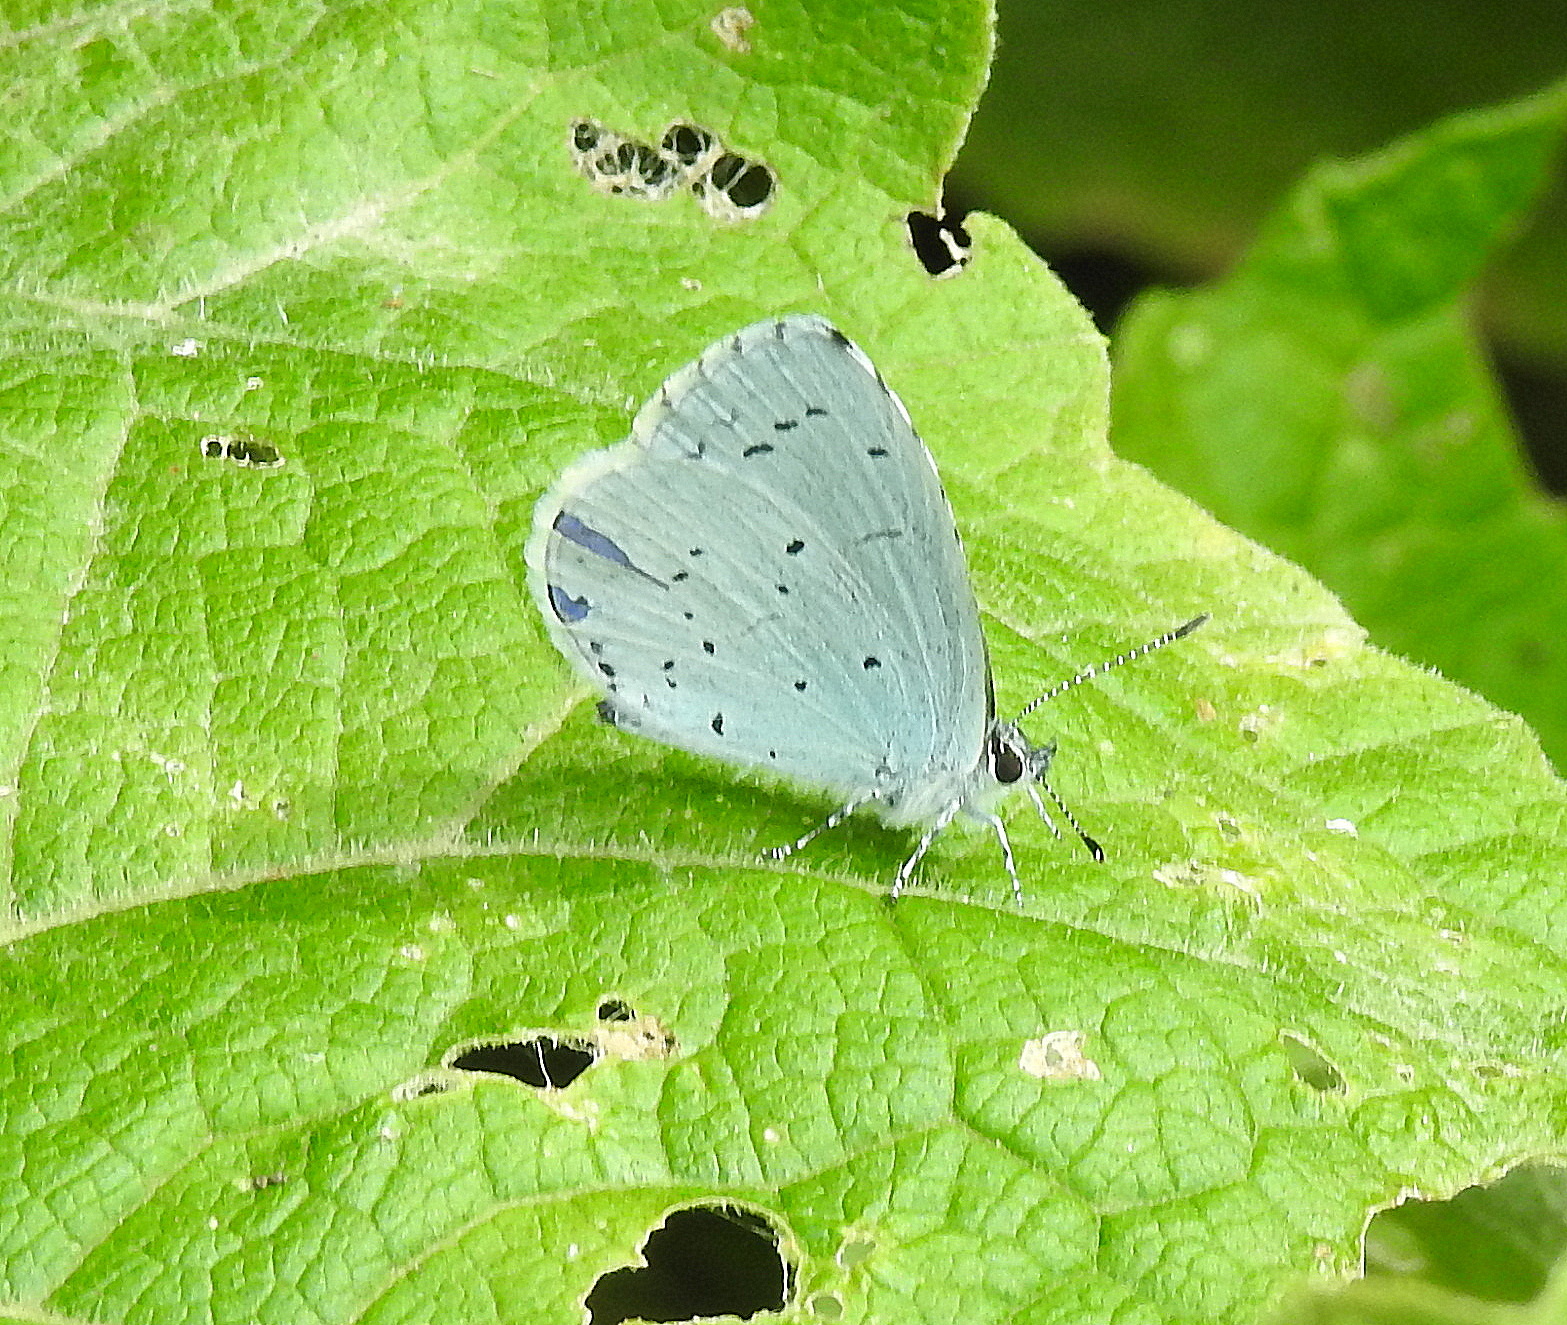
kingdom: Animalia
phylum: Arthropoda
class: Insecta
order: Lepidoptera
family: Lycaenidae
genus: Celastrina
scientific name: Celastrina argiolus
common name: Holly blue
